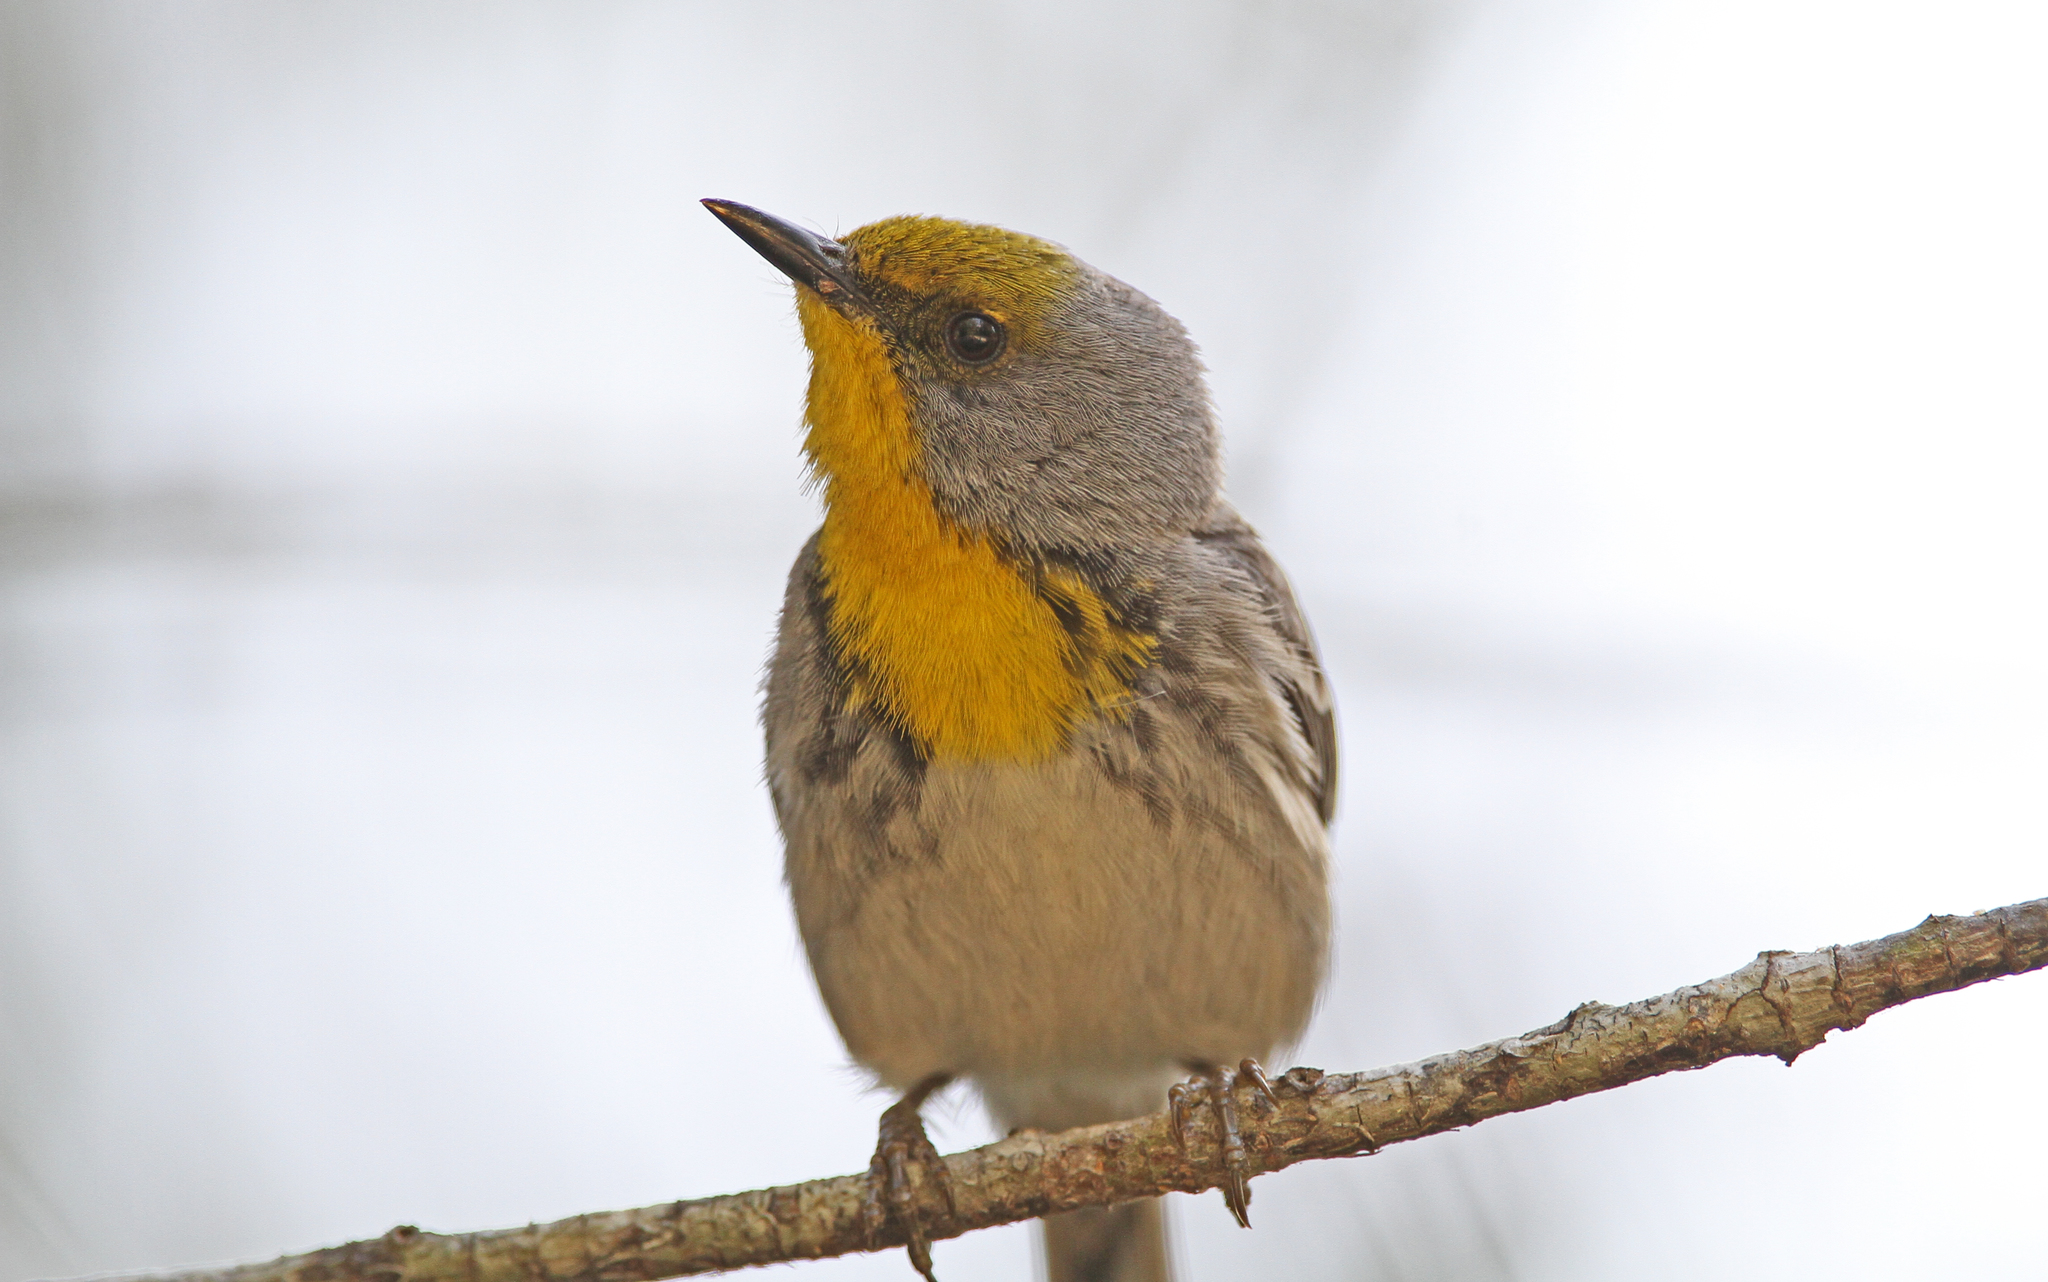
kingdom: Animalia
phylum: Chordata
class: Aves
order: Passeriformes
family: Parulidae
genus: Setophaga
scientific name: Setophaga pityophila
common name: Olive-capped warbler
